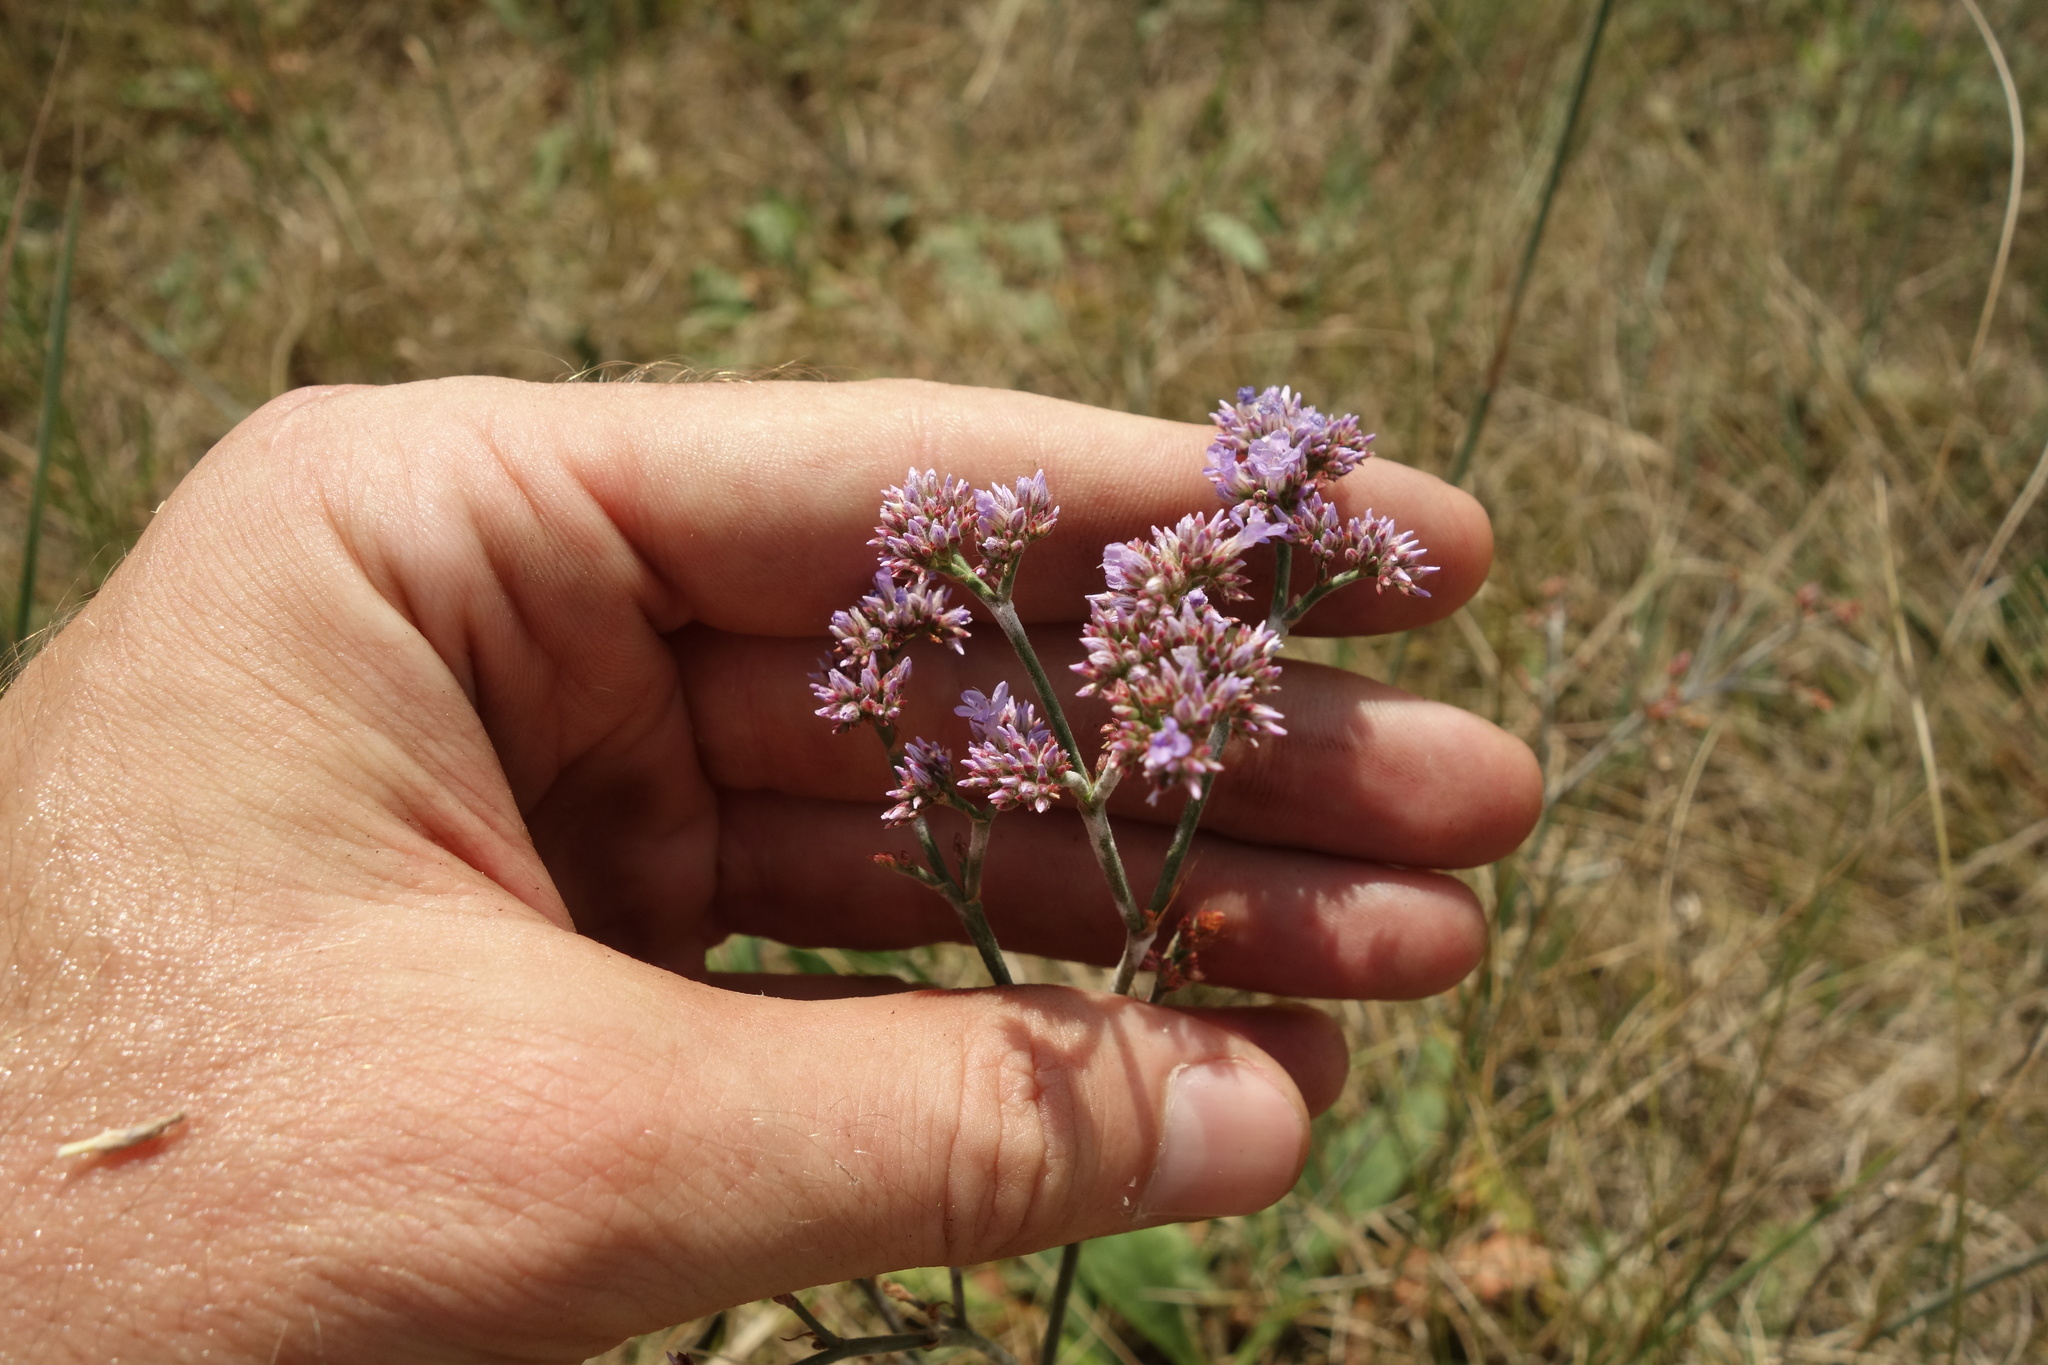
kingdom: Plantae
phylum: Tracheophyta
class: Magnoliopsida
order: Caryophyllales
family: Plumbaginaceae
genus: Limonium
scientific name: Limonium tomentellum
